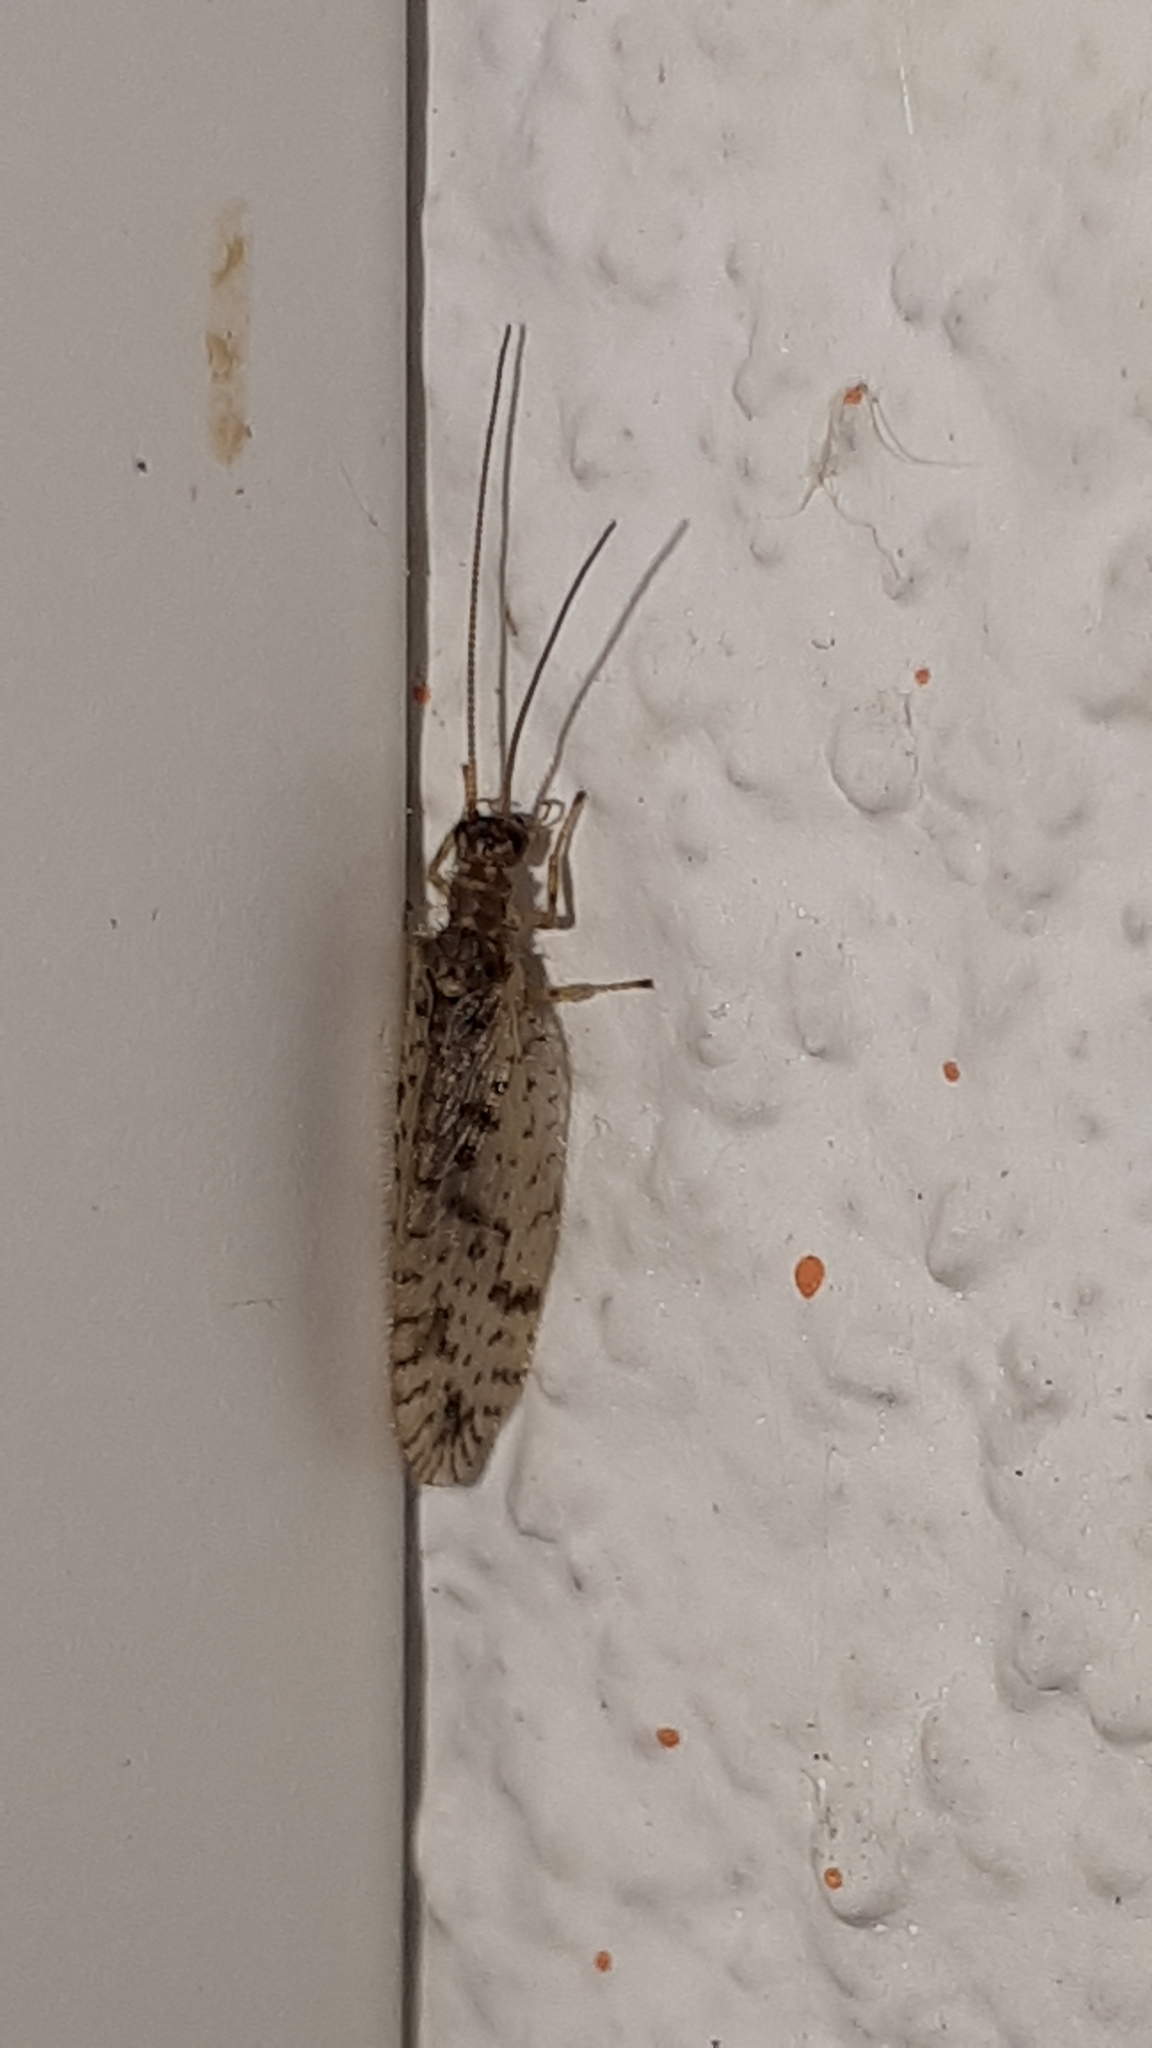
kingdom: Animalia
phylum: Arthropoda
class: Insecta
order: Neuroptera
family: Hemerobiidae
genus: Micromus
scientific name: Micromus variegatus
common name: Brown lacewing
